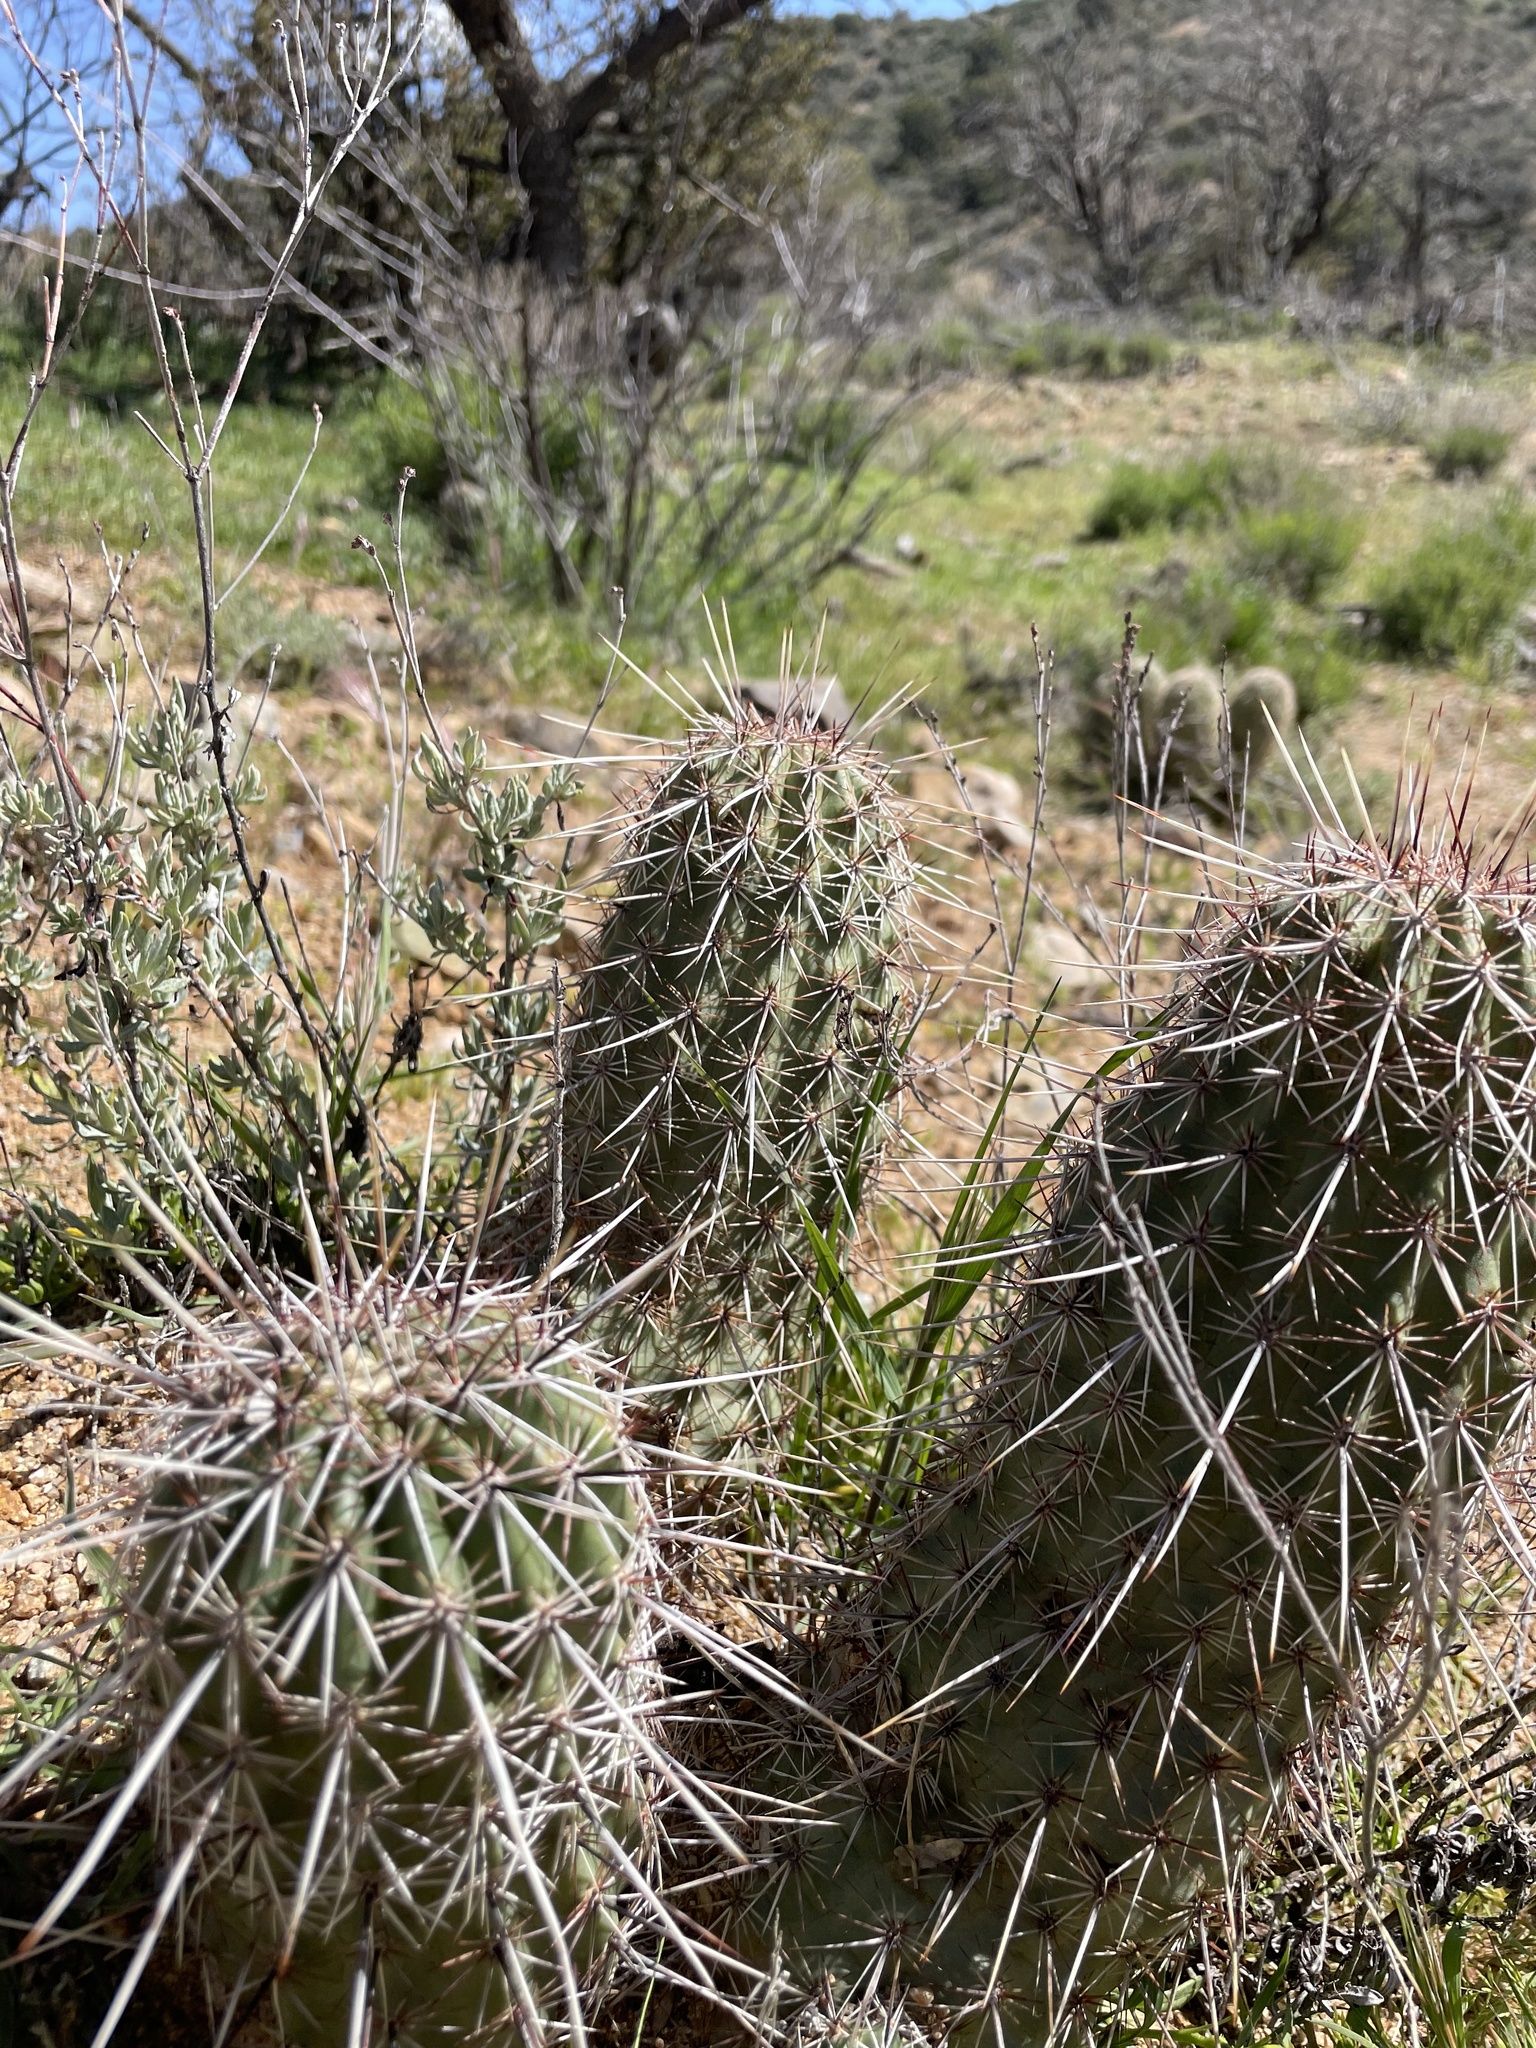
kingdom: Plantae
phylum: Tracheophyta
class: Magnoliopsida
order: Caryophyllales
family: Cactaceae
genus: Echinocereus
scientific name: Echinocereus fasciculatus
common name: Bundle hedgehog
